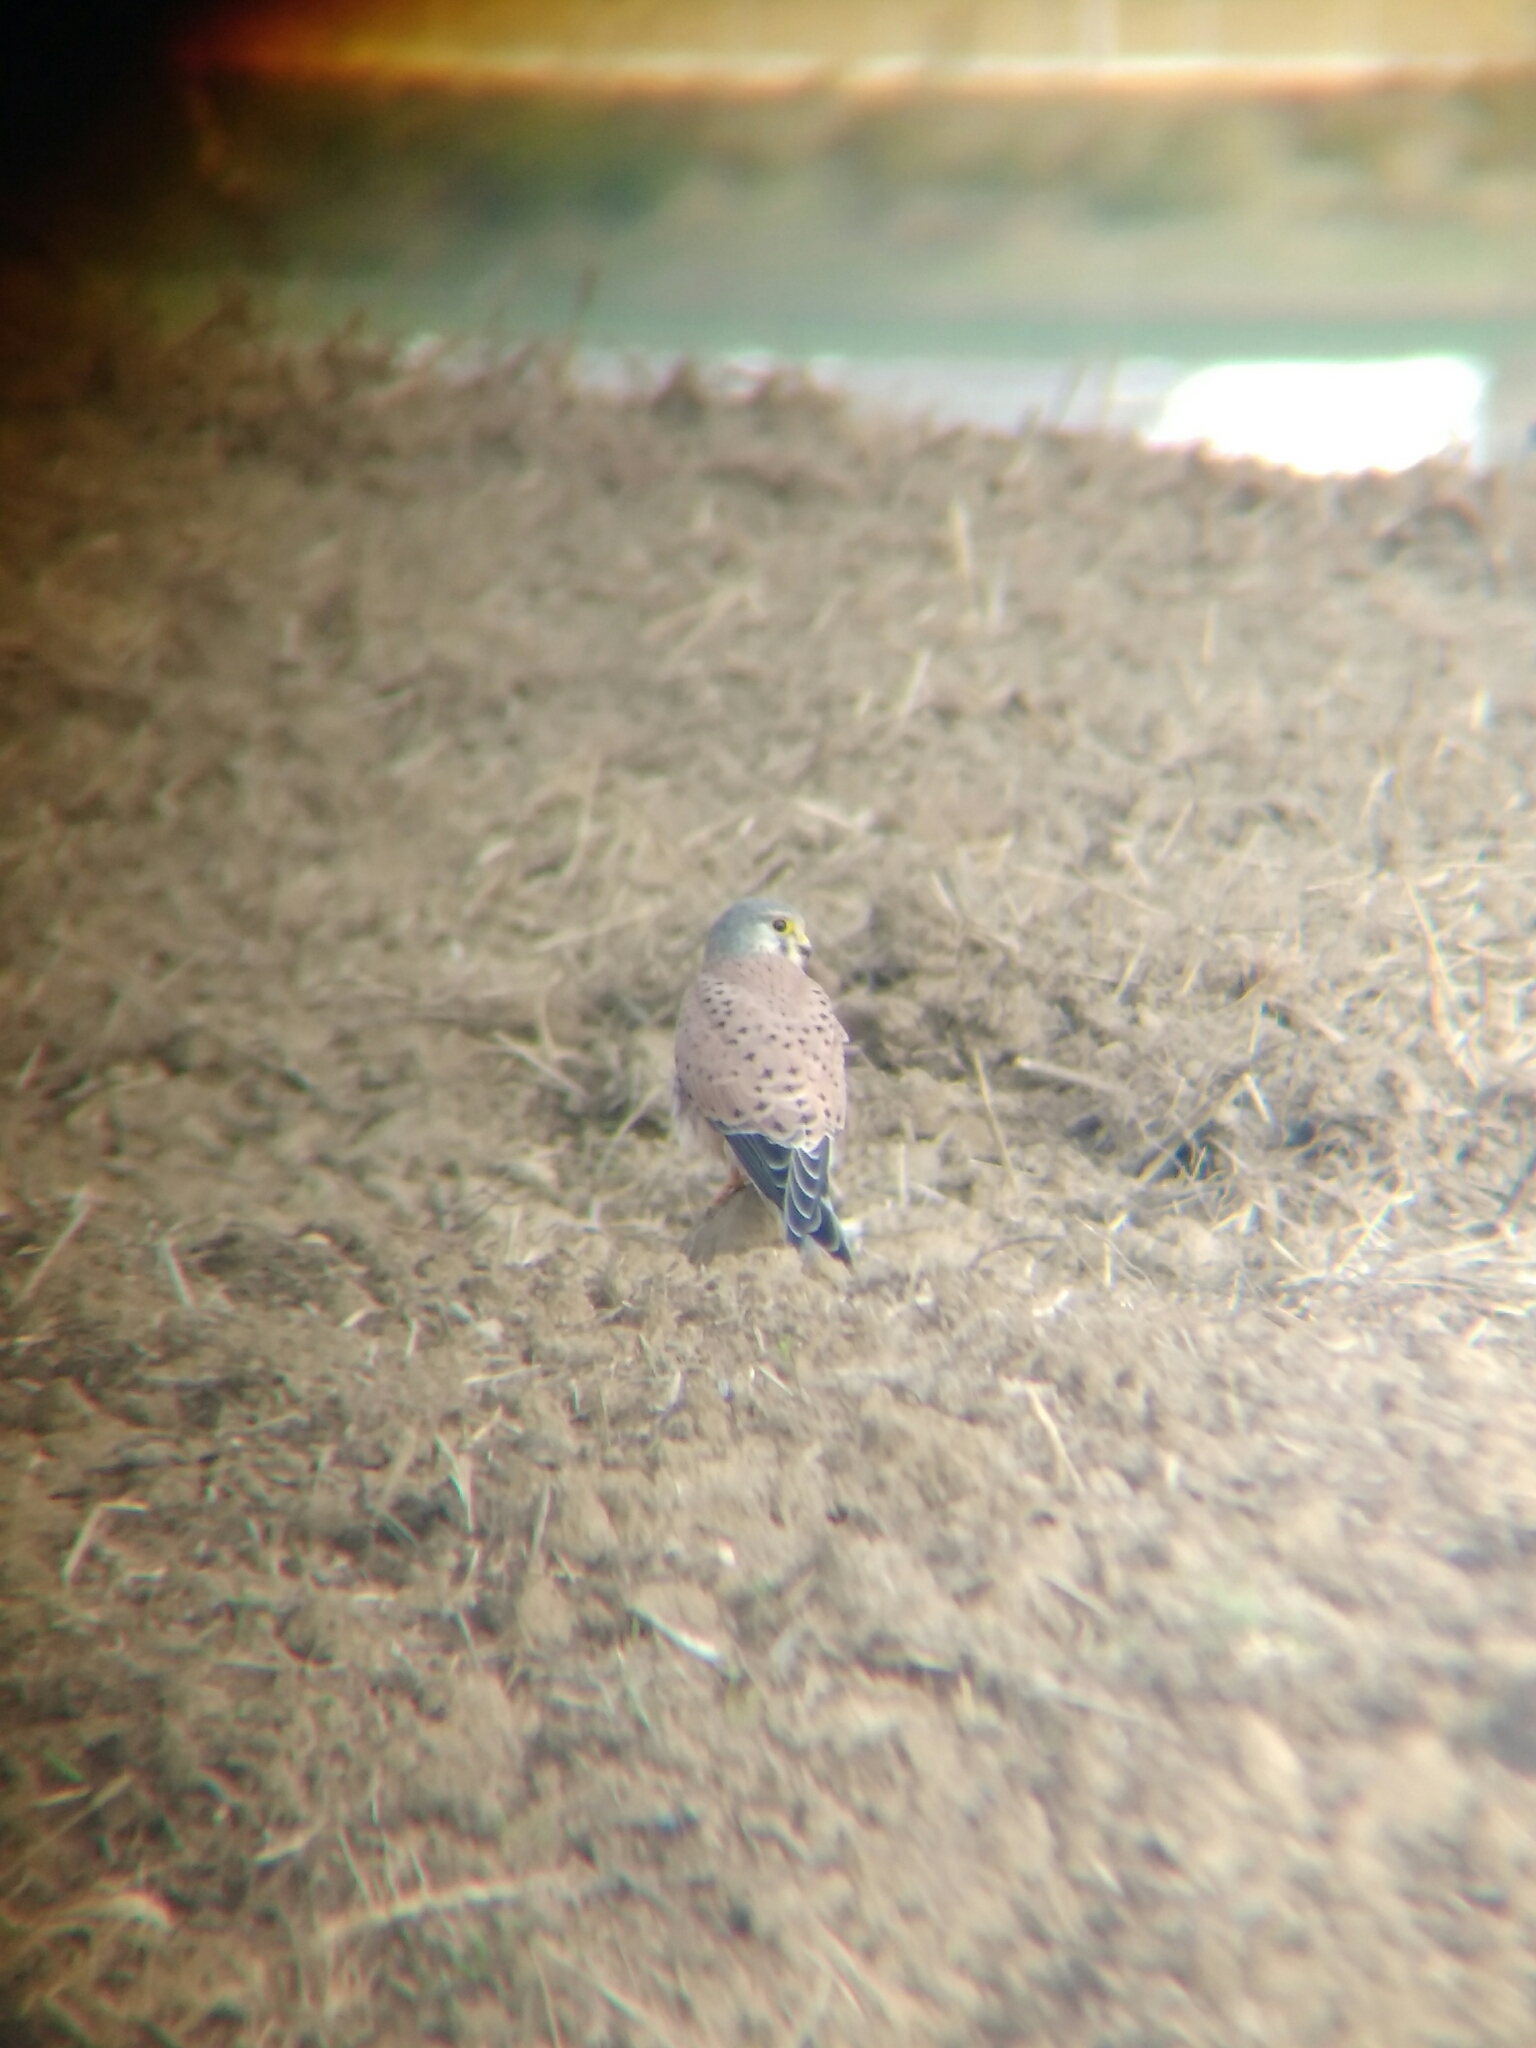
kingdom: Animalia
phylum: Chordata
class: Aves
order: Falconiformes
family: Falconidae
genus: Falco
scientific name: Falco tinnunculus
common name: Common kestrel
